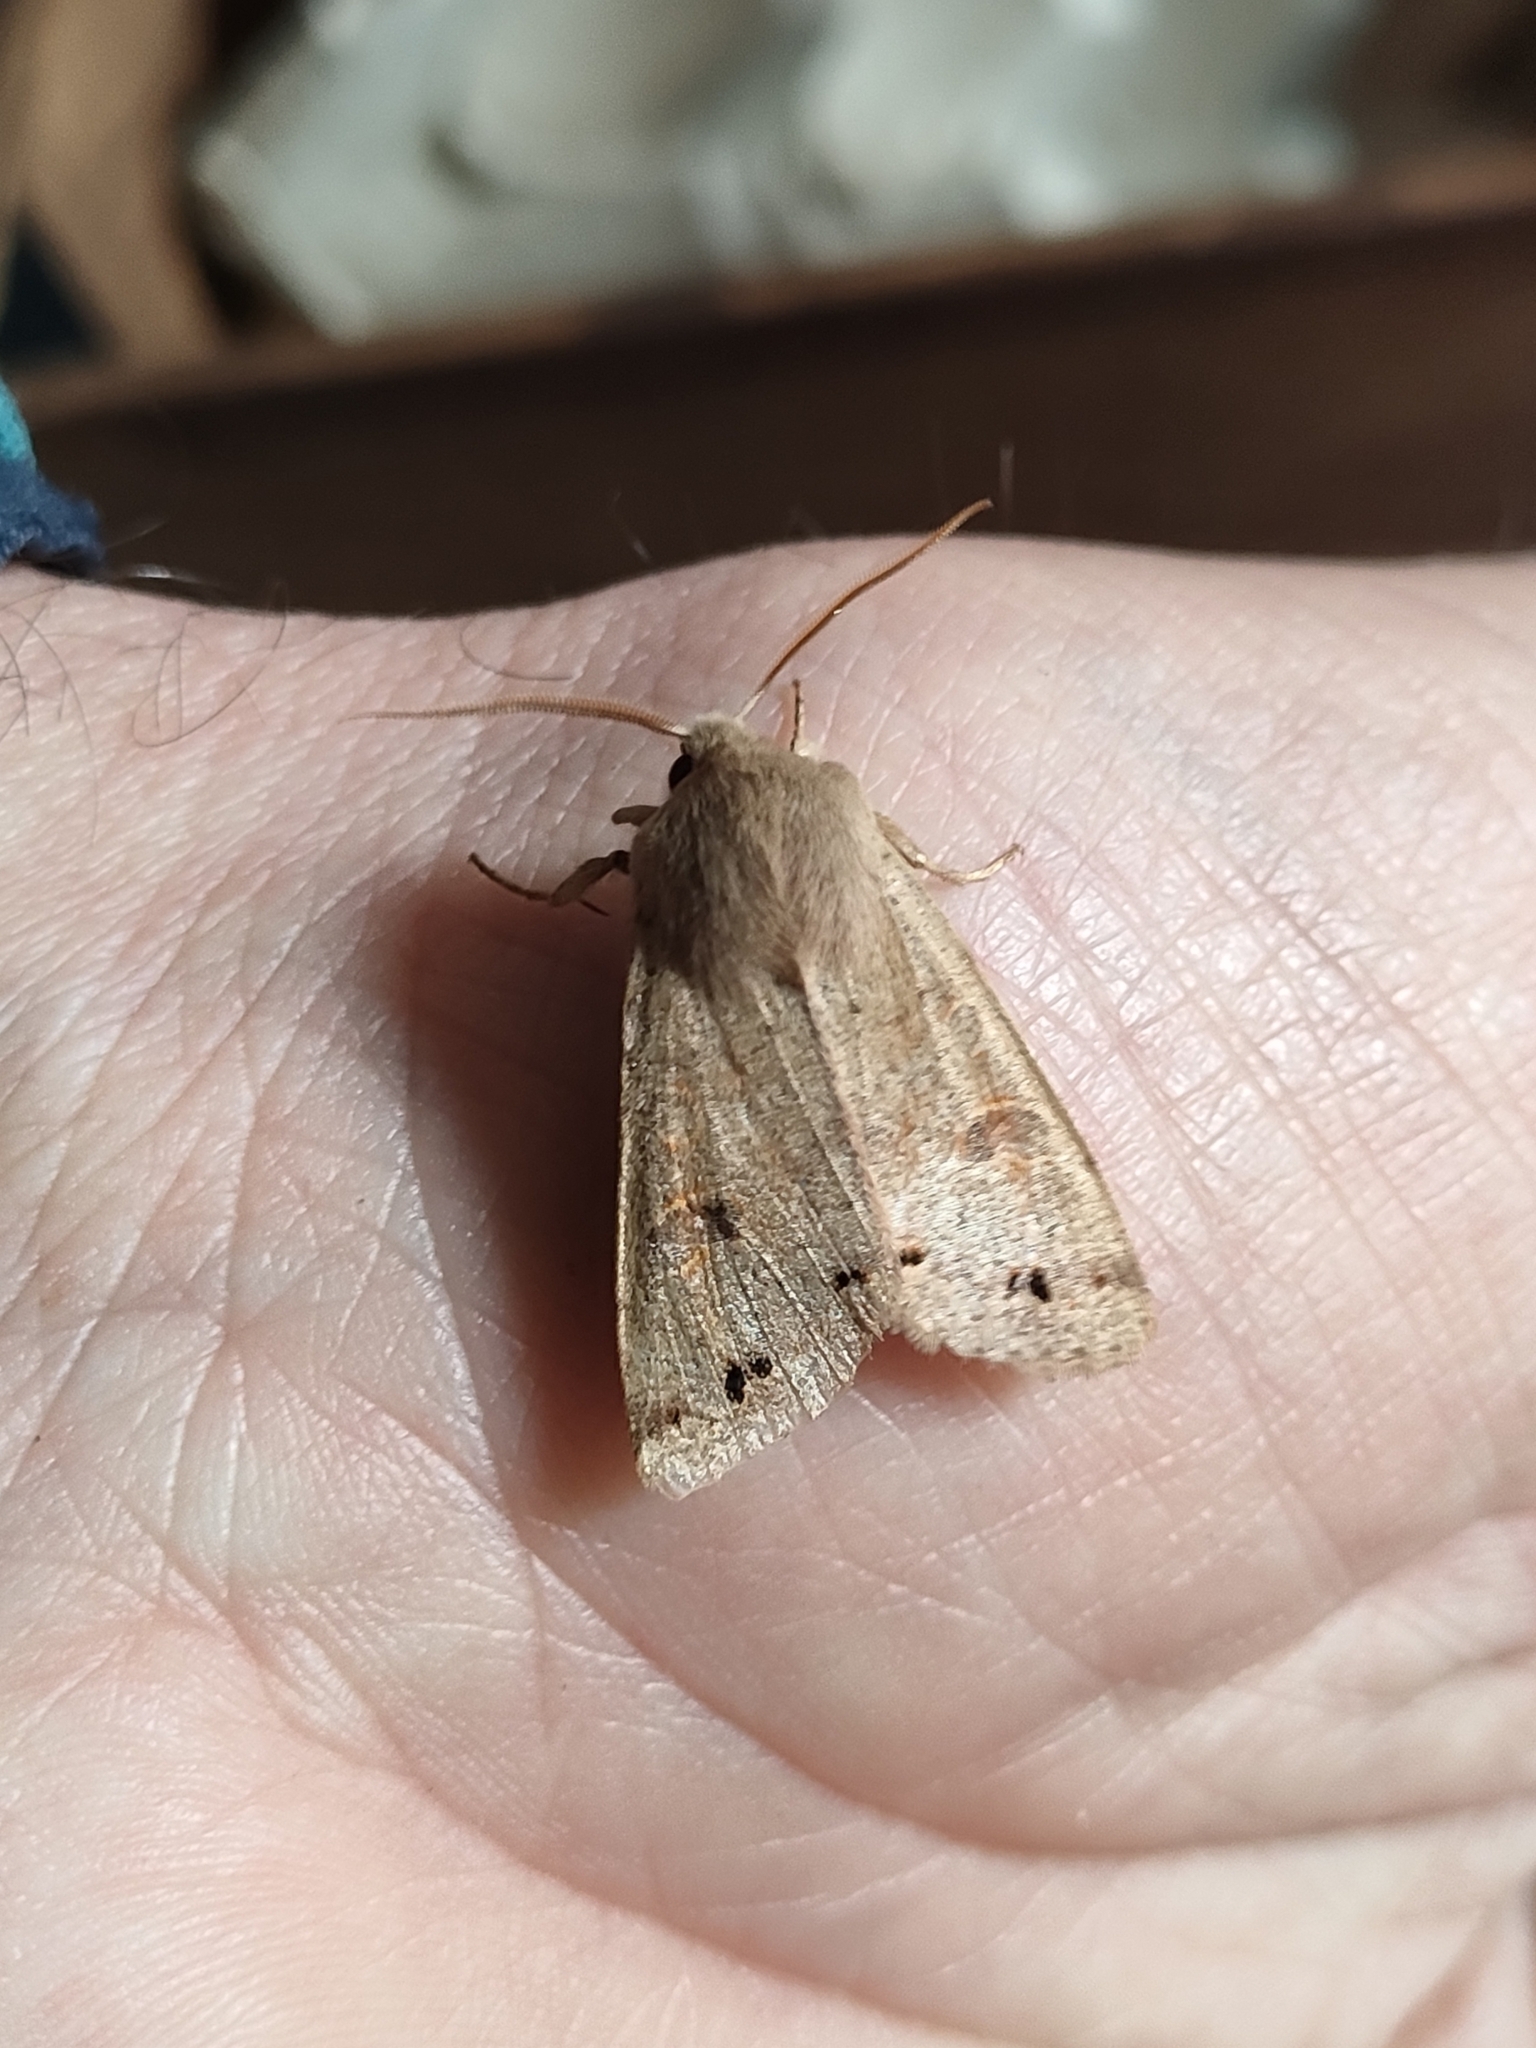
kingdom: Animalia
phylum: Arthropoda
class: Insecta
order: Lepidoptera
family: Noctuidae
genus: Anorthoa
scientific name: Anorthoa munda
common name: Twin-spotted quaker
